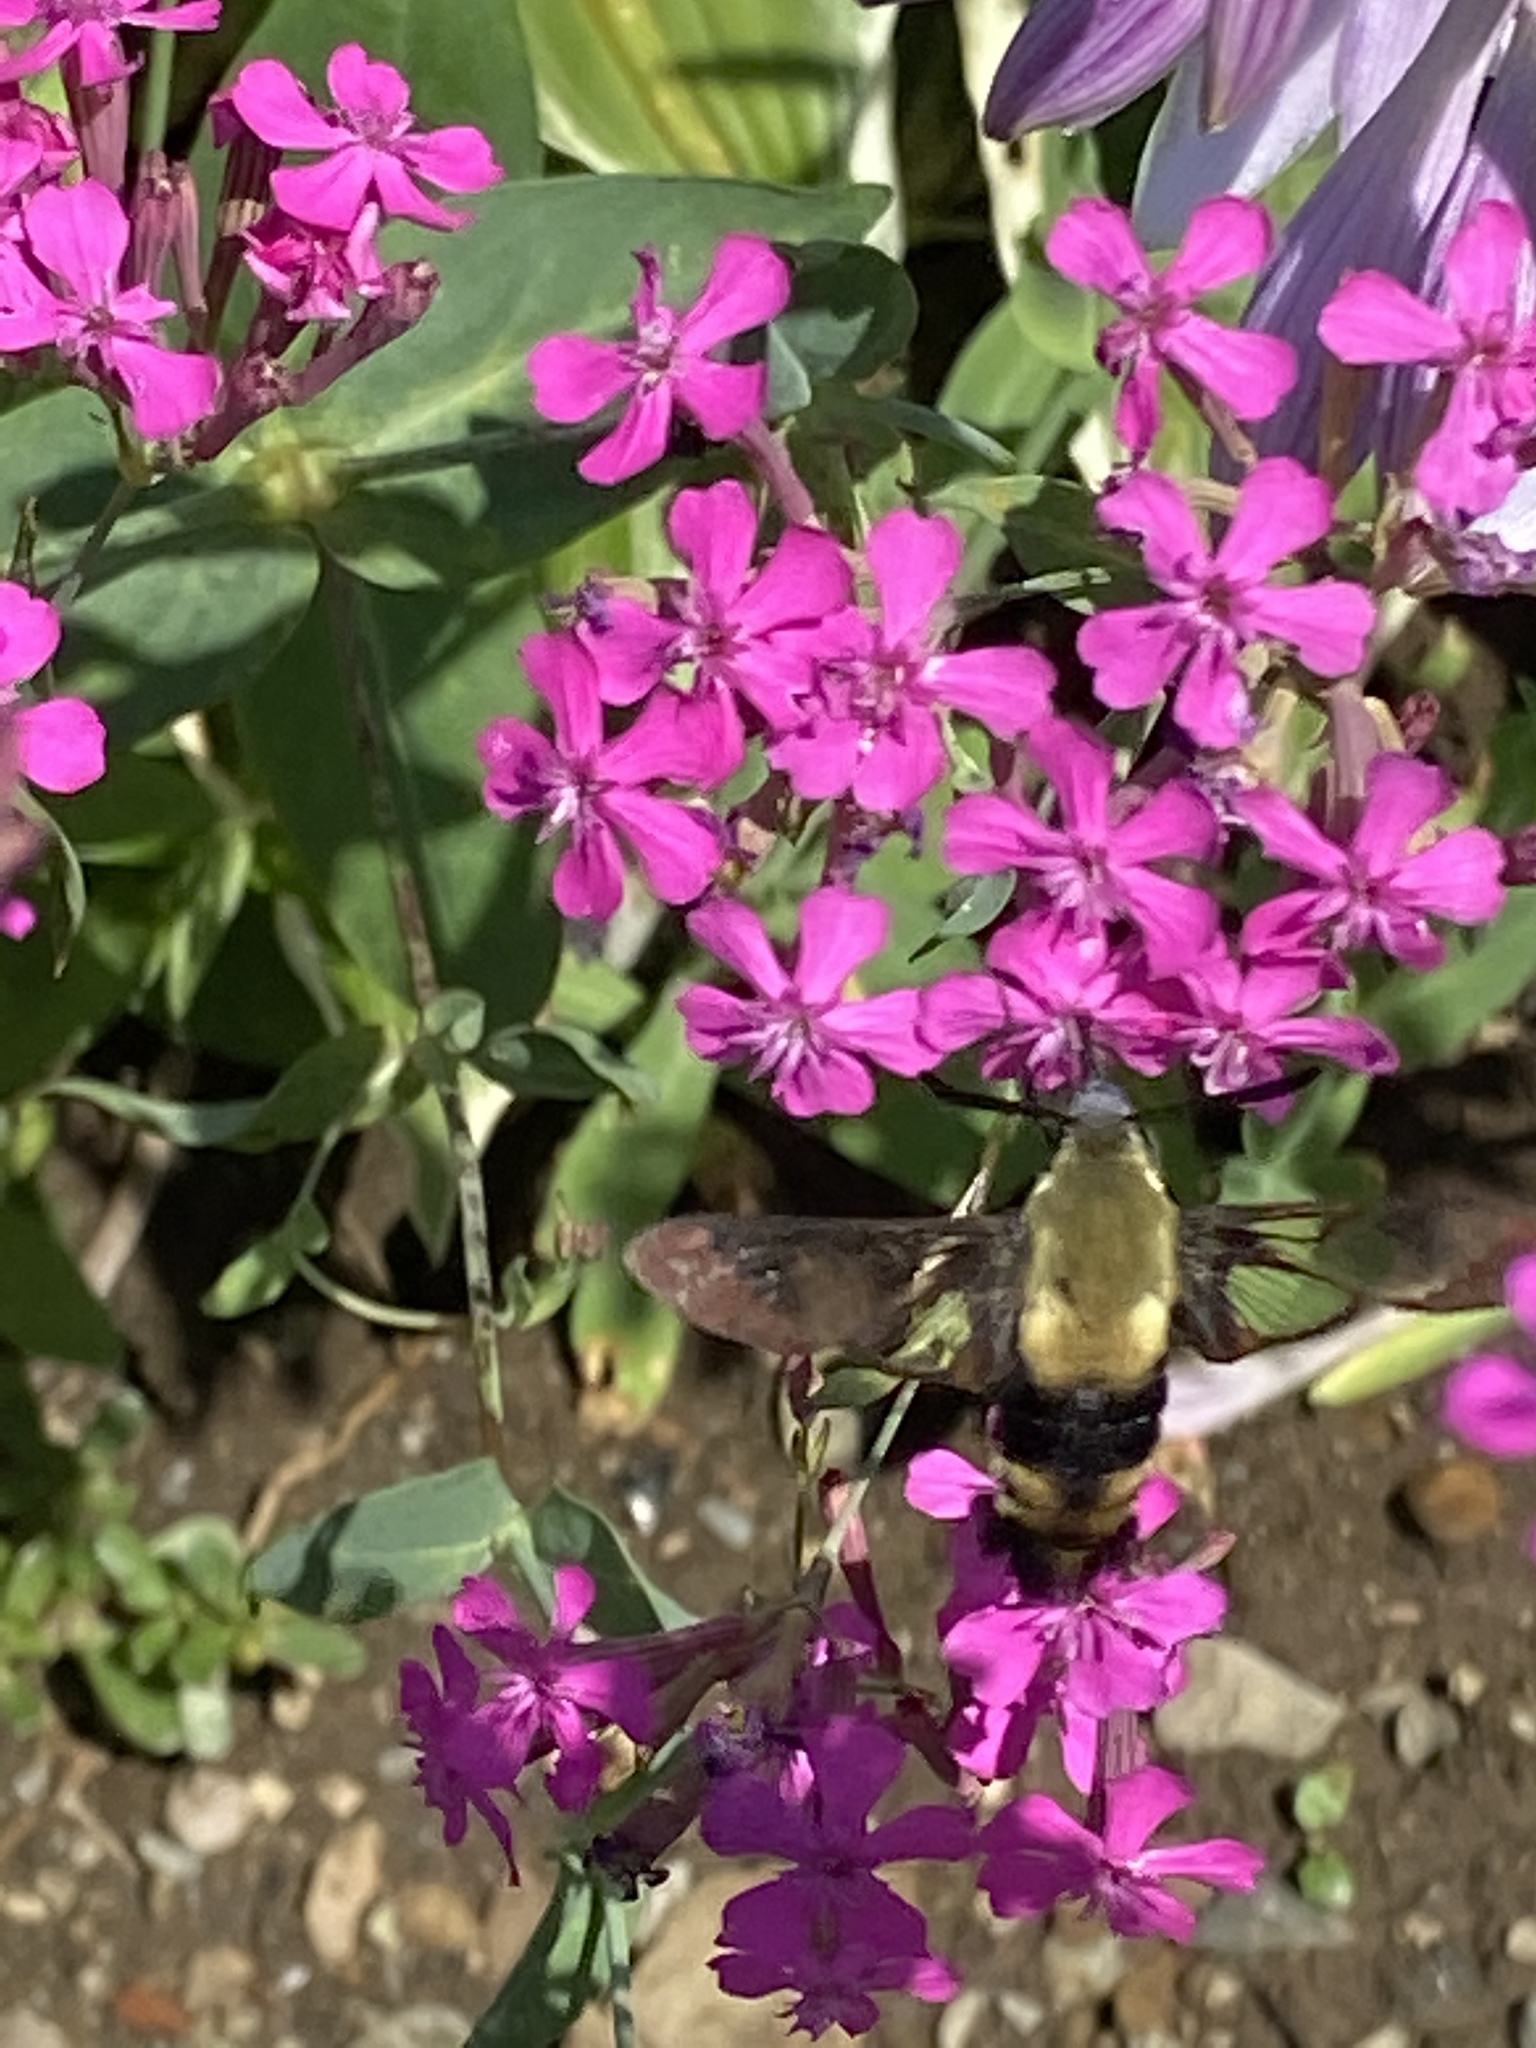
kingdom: Animalia
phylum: Arthropoda
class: Insecta
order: Lepidoptera
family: Sphingidae
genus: Hemaris
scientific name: Hemaris diffinis
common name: Bumblebee moth
